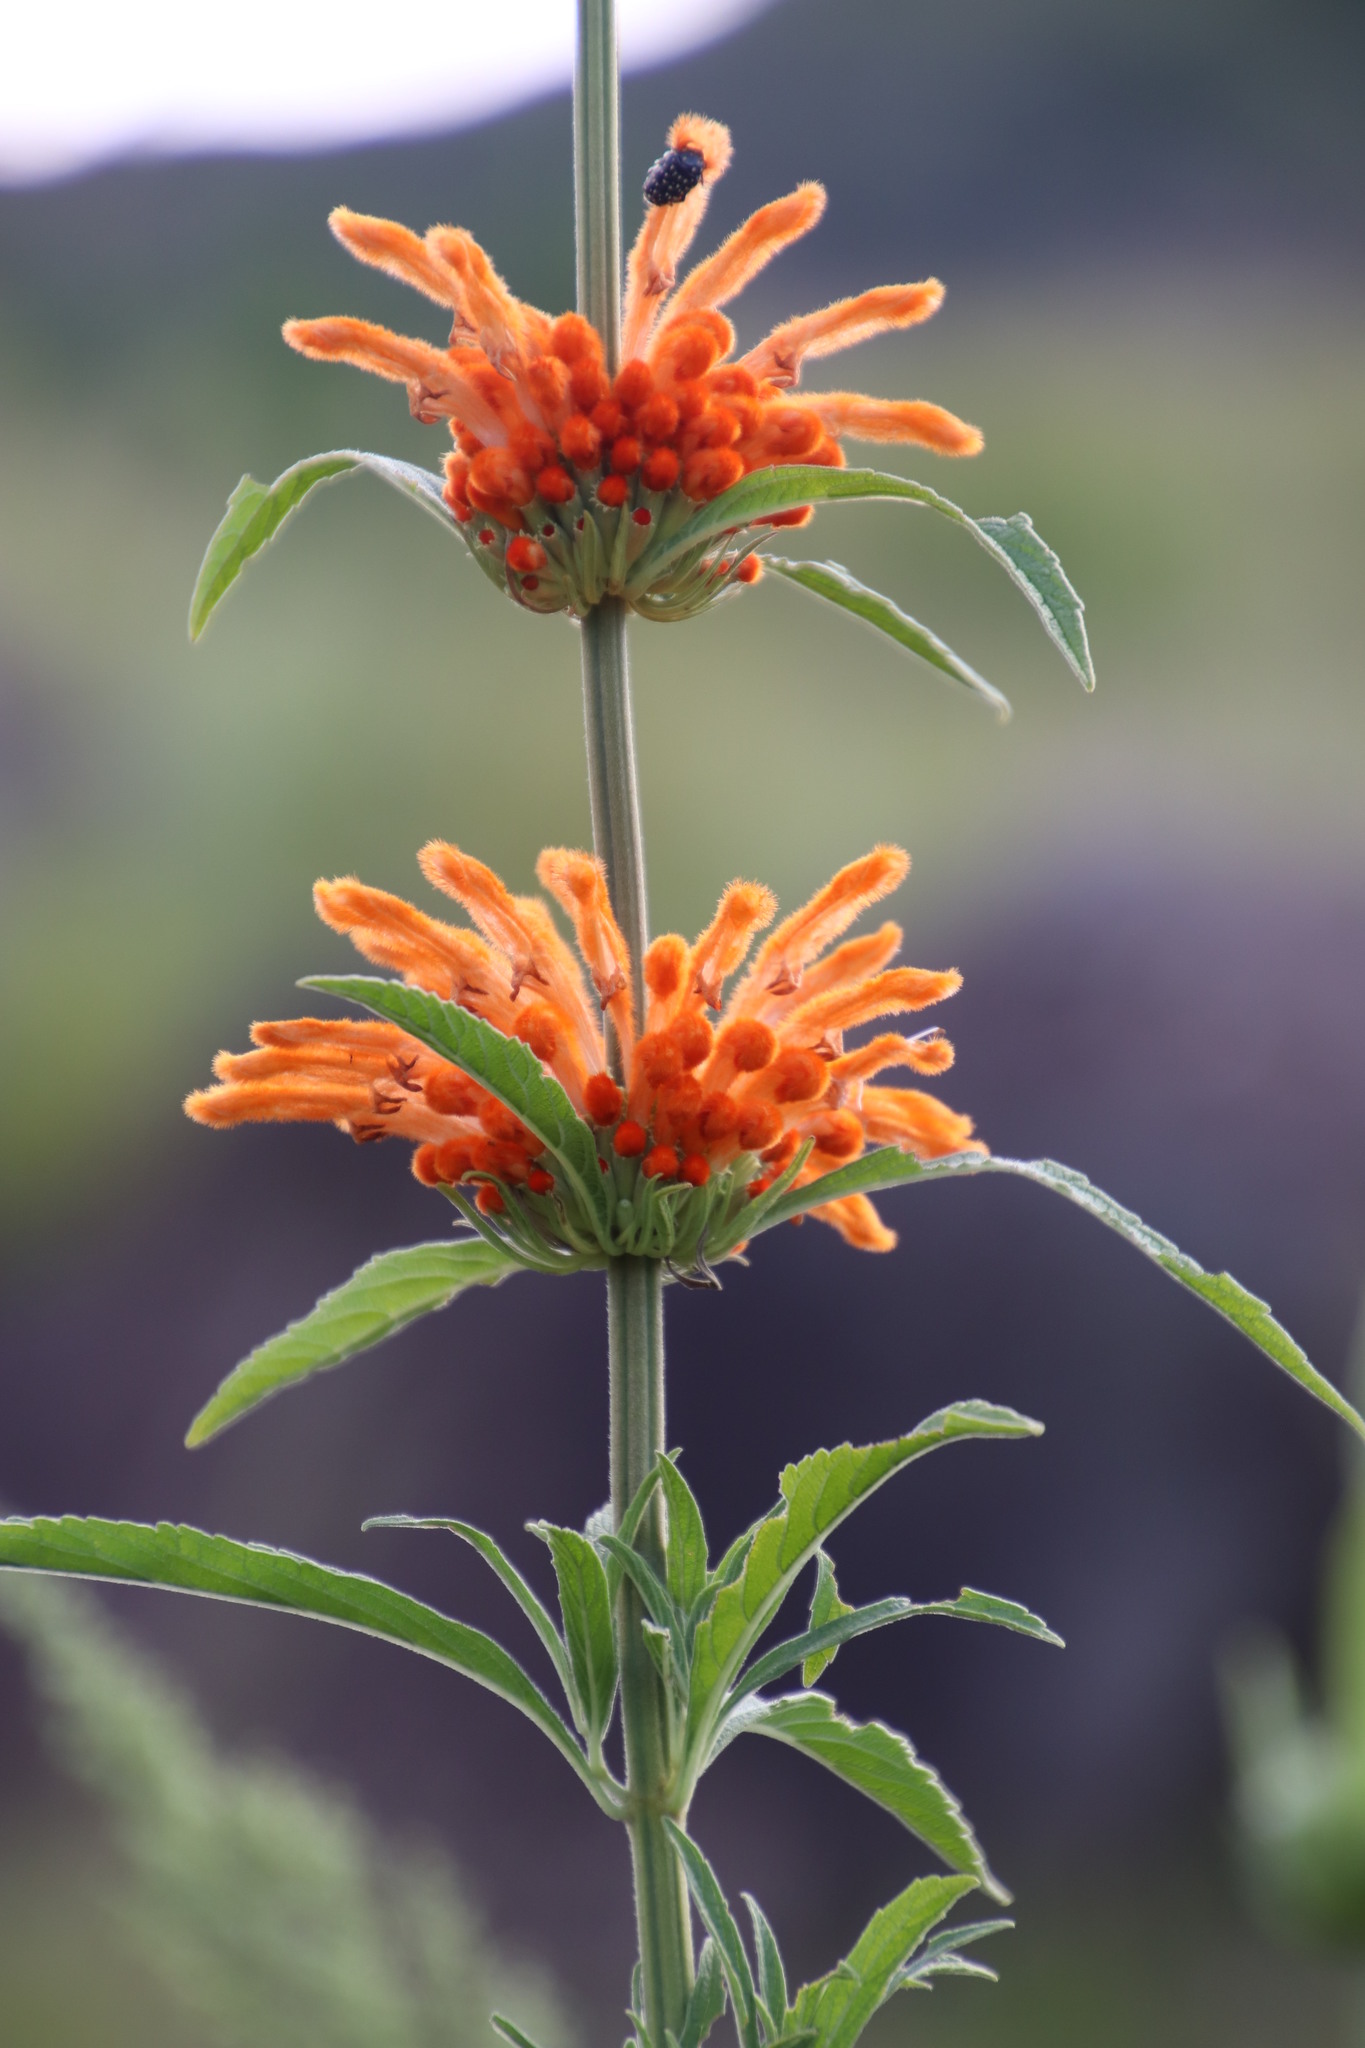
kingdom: Plantae
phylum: Tracheophyta
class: Magnoliopsida
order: Lamiales
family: Lamiaceae
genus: Leonotis
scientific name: Leonotis leonurus
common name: Lion's ear
